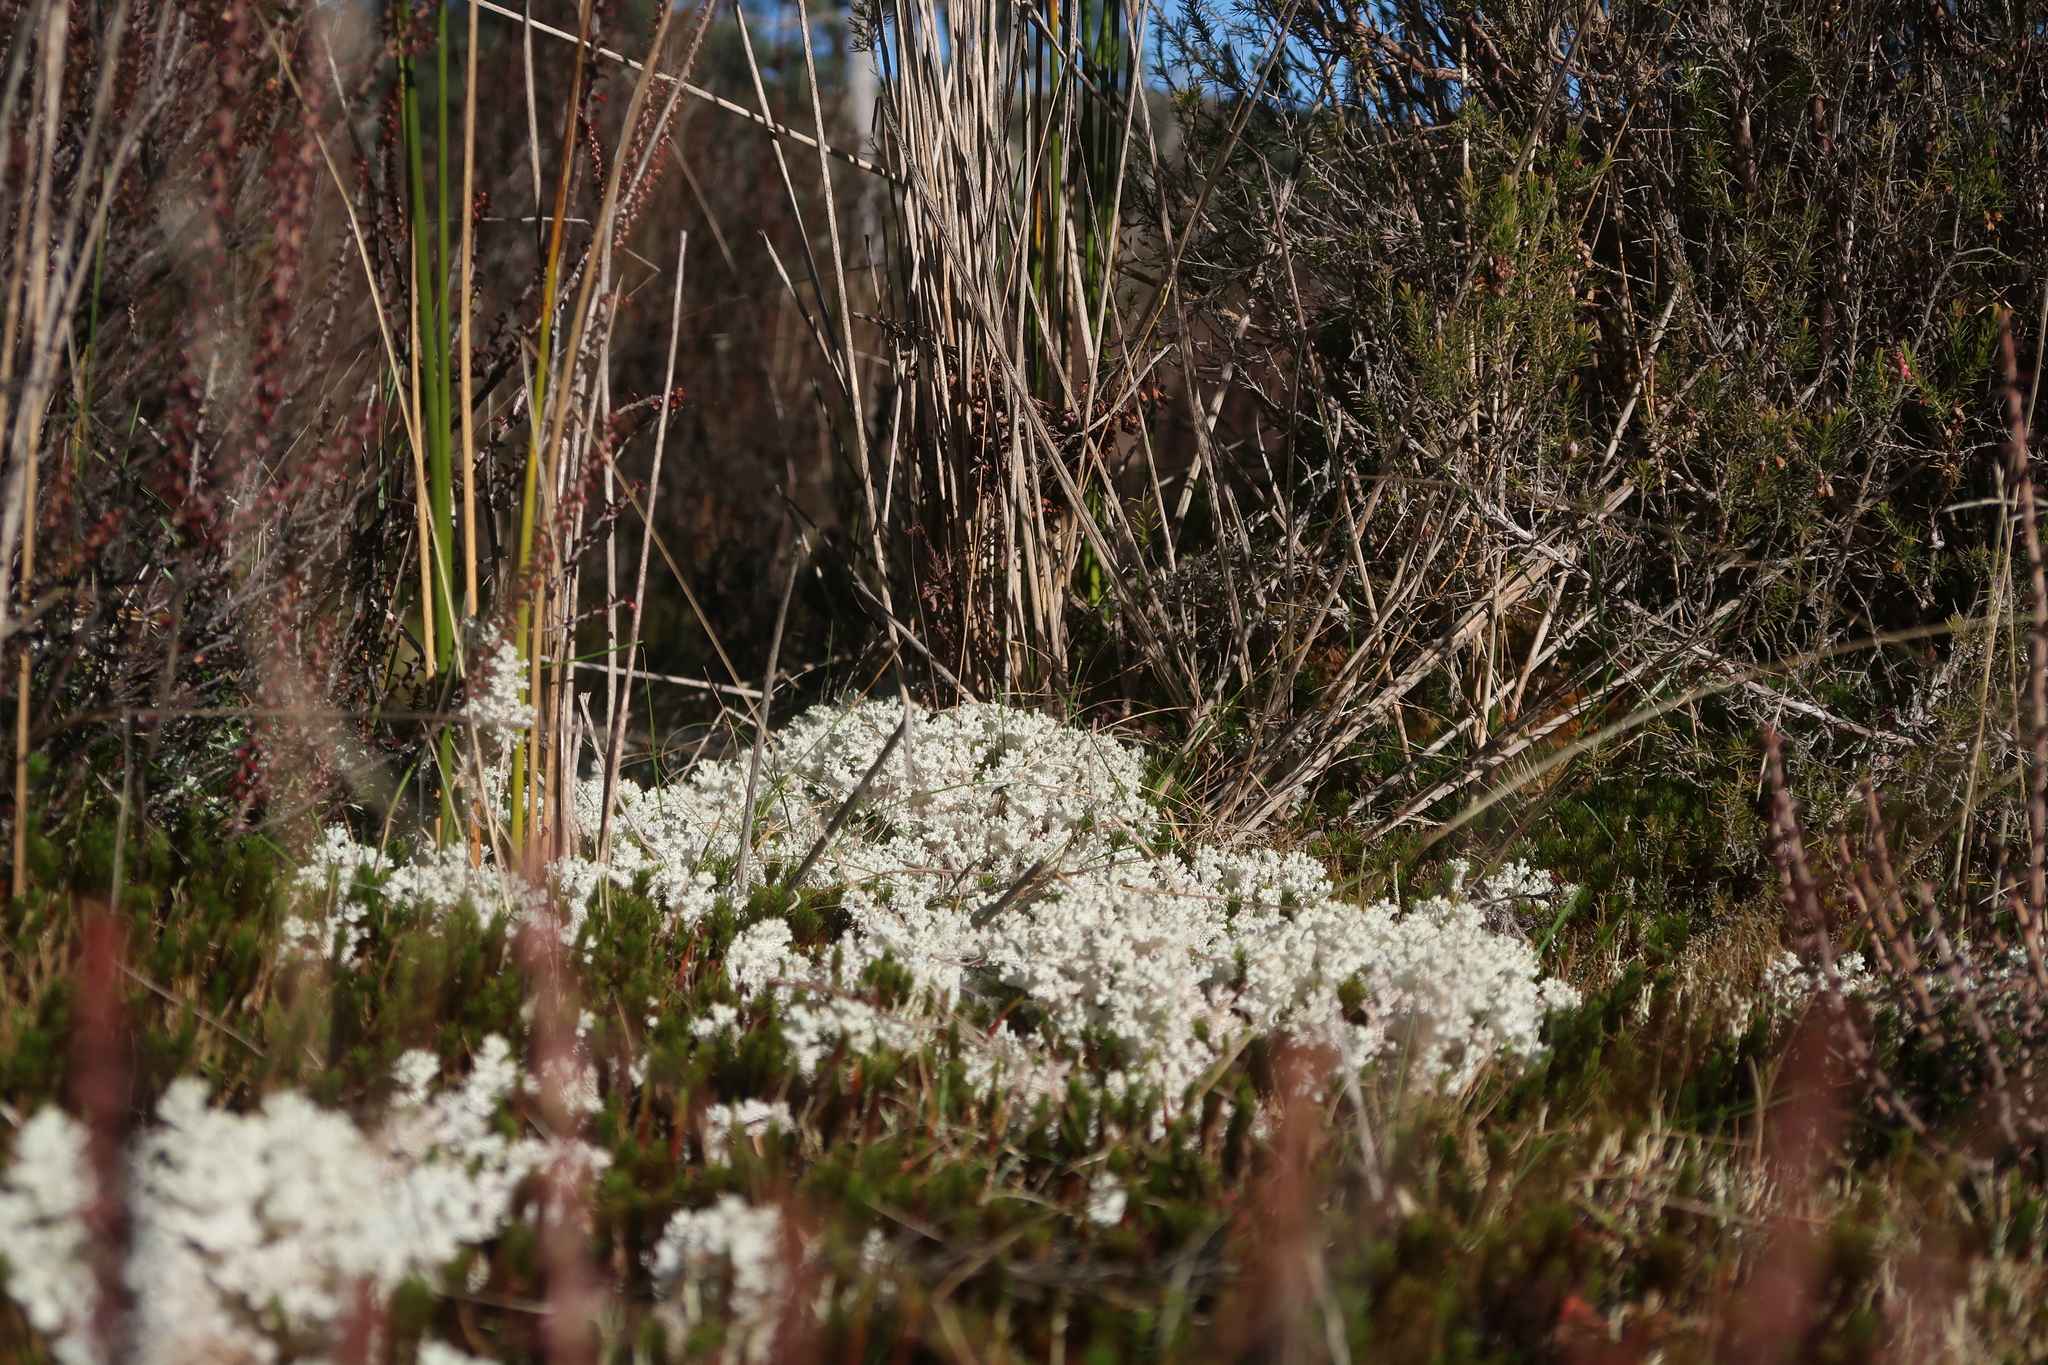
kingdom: Fungi
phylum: Ascomycota
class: Lecanoromycetes
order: Lecanorales
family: Cladoniaceae
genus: Pulchrocladia
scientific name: Pulchrocladia retipora
